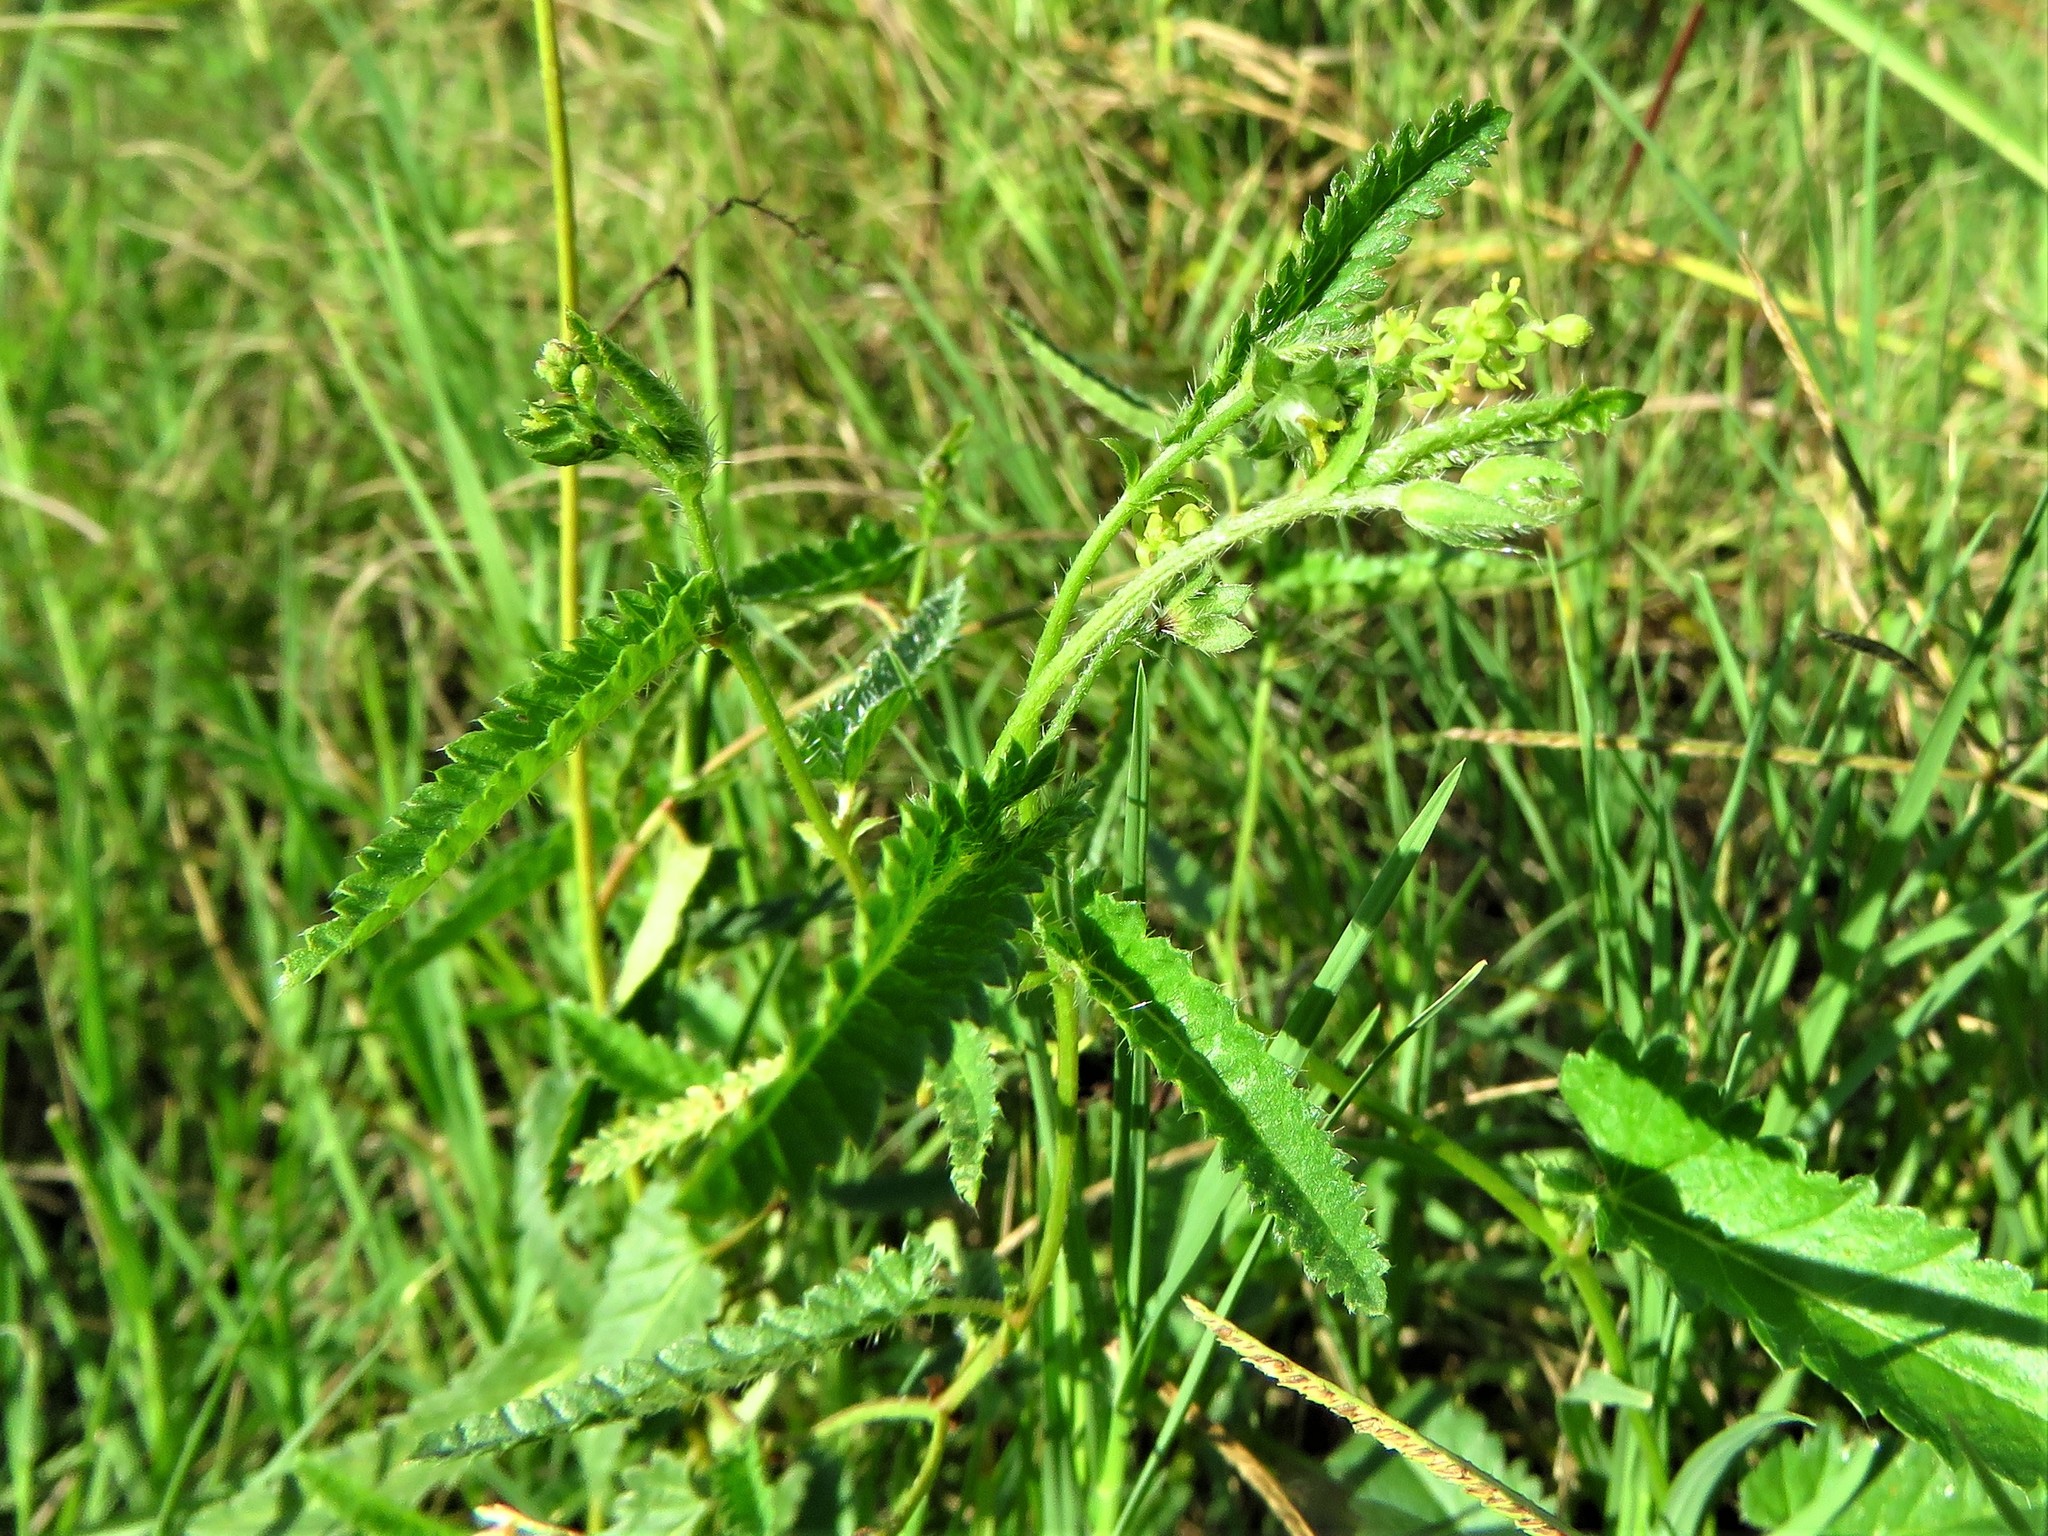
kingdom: Plantae
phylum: Tracheophyta
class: Magnoliopsida
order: Malpighiales
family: Euphorbiaceae
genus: Tragia
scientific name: Tragia urticifolia
